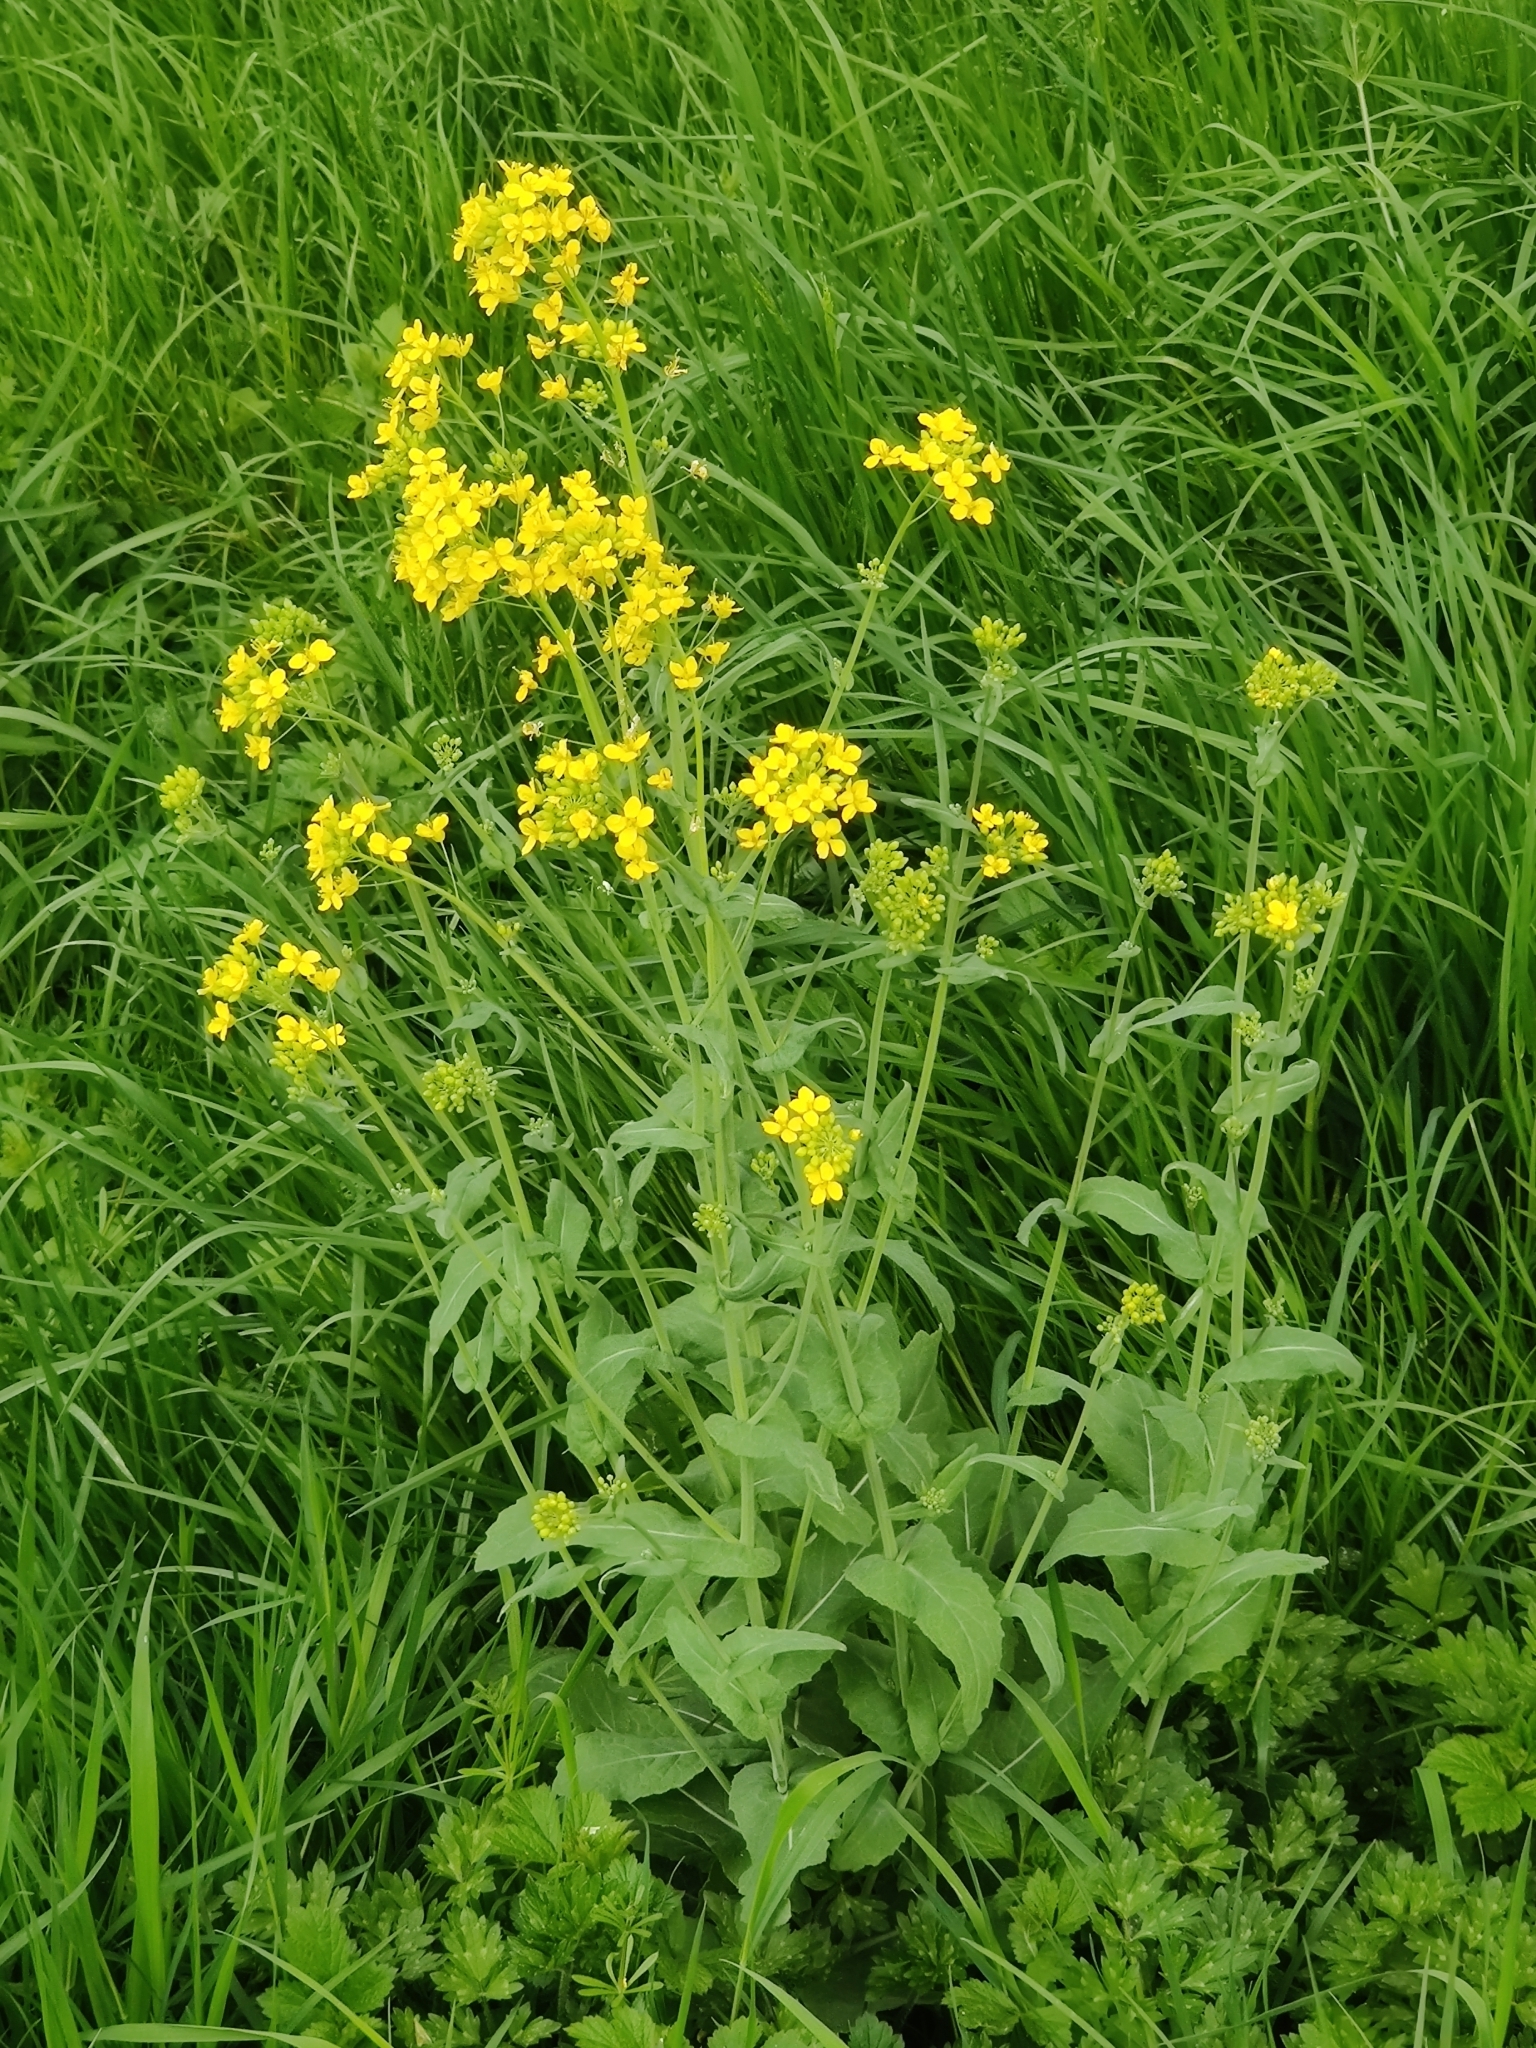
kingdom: Plantae
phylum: Tracheophyta
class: Magnoliopsida
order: Brassicales
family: Brassicaceae
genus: Brassica
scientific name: Brassica napus
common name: Rape
